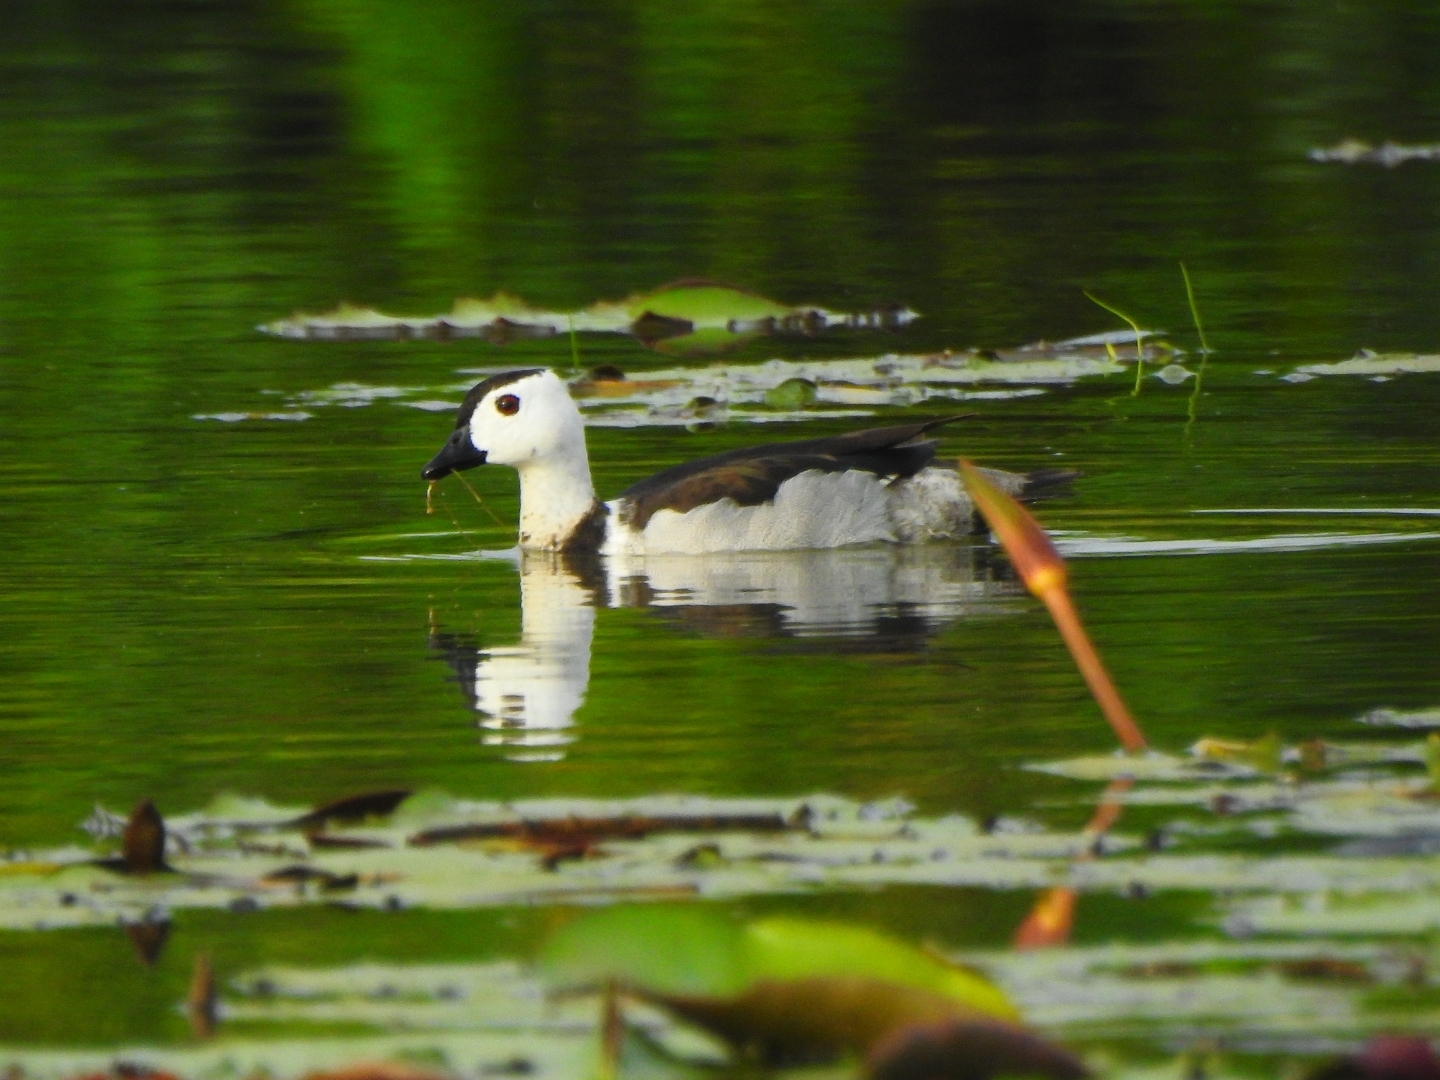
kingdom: Animalia
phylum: Chordata
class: Aves
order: Anseriformes
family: Anatidae
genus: Nettapus
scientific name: Nettapus coromandelianus
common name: Cotton pygmy-goose
